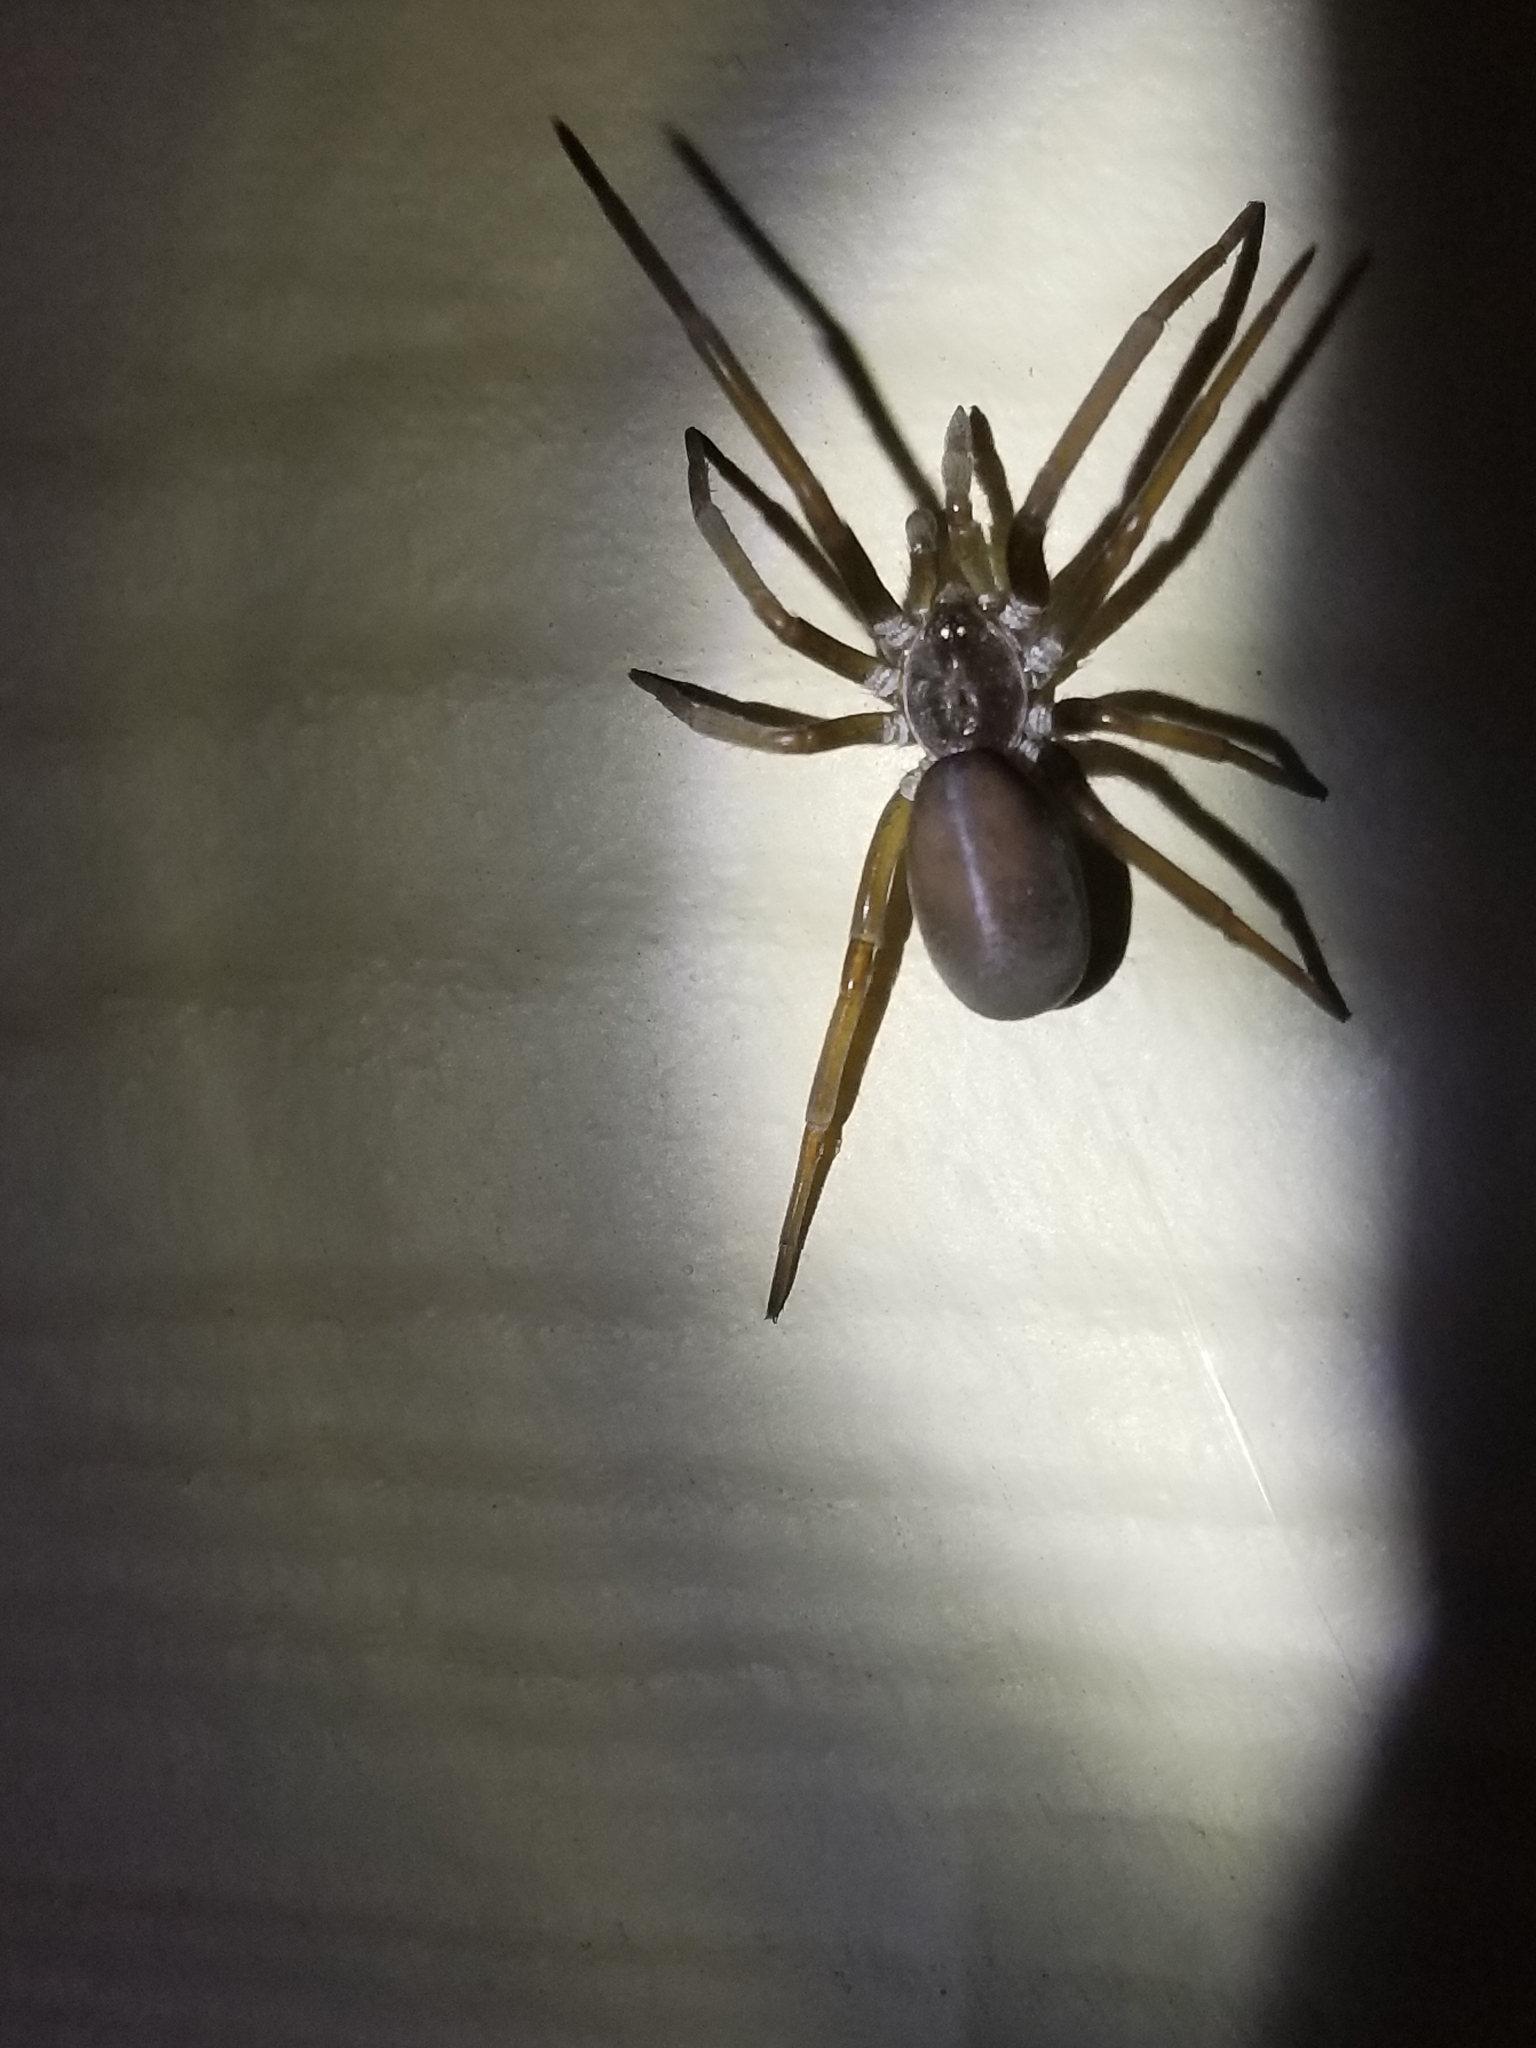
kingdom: Animalia
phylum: Arthropoda
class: Arachnida
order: Araneae
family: Filistatidae
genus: Kukulcania
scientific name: Kukulcania hibernalis
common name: Crevice weaver
